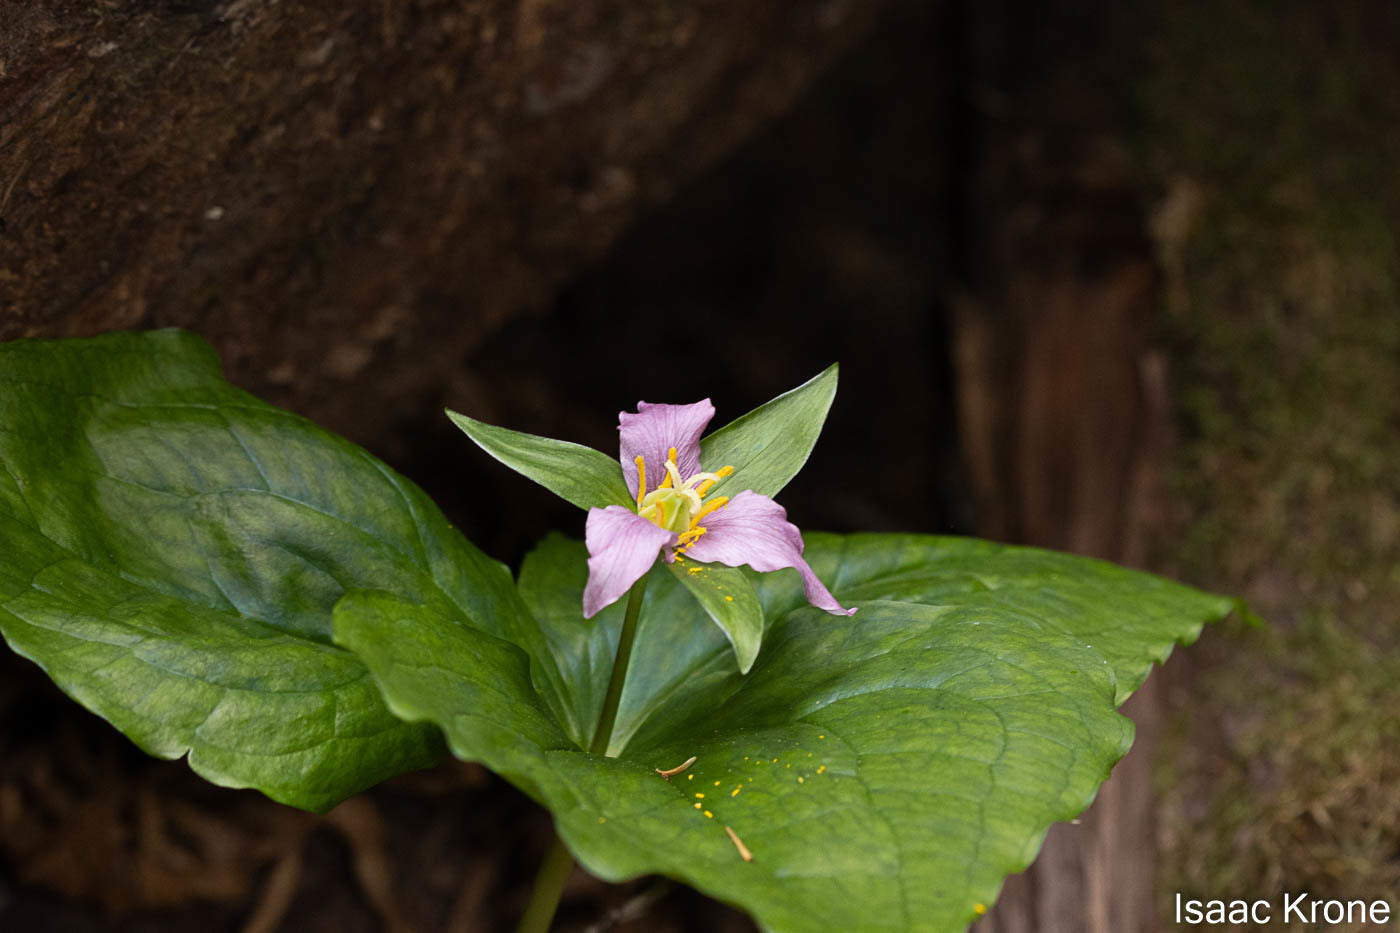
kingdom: Plantae
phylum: Tracheophyta
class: Liliopsida
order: Liliales
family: Melanthiaceae
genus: Trillium
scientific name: Trillium ovatum
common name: Pacific trillium
